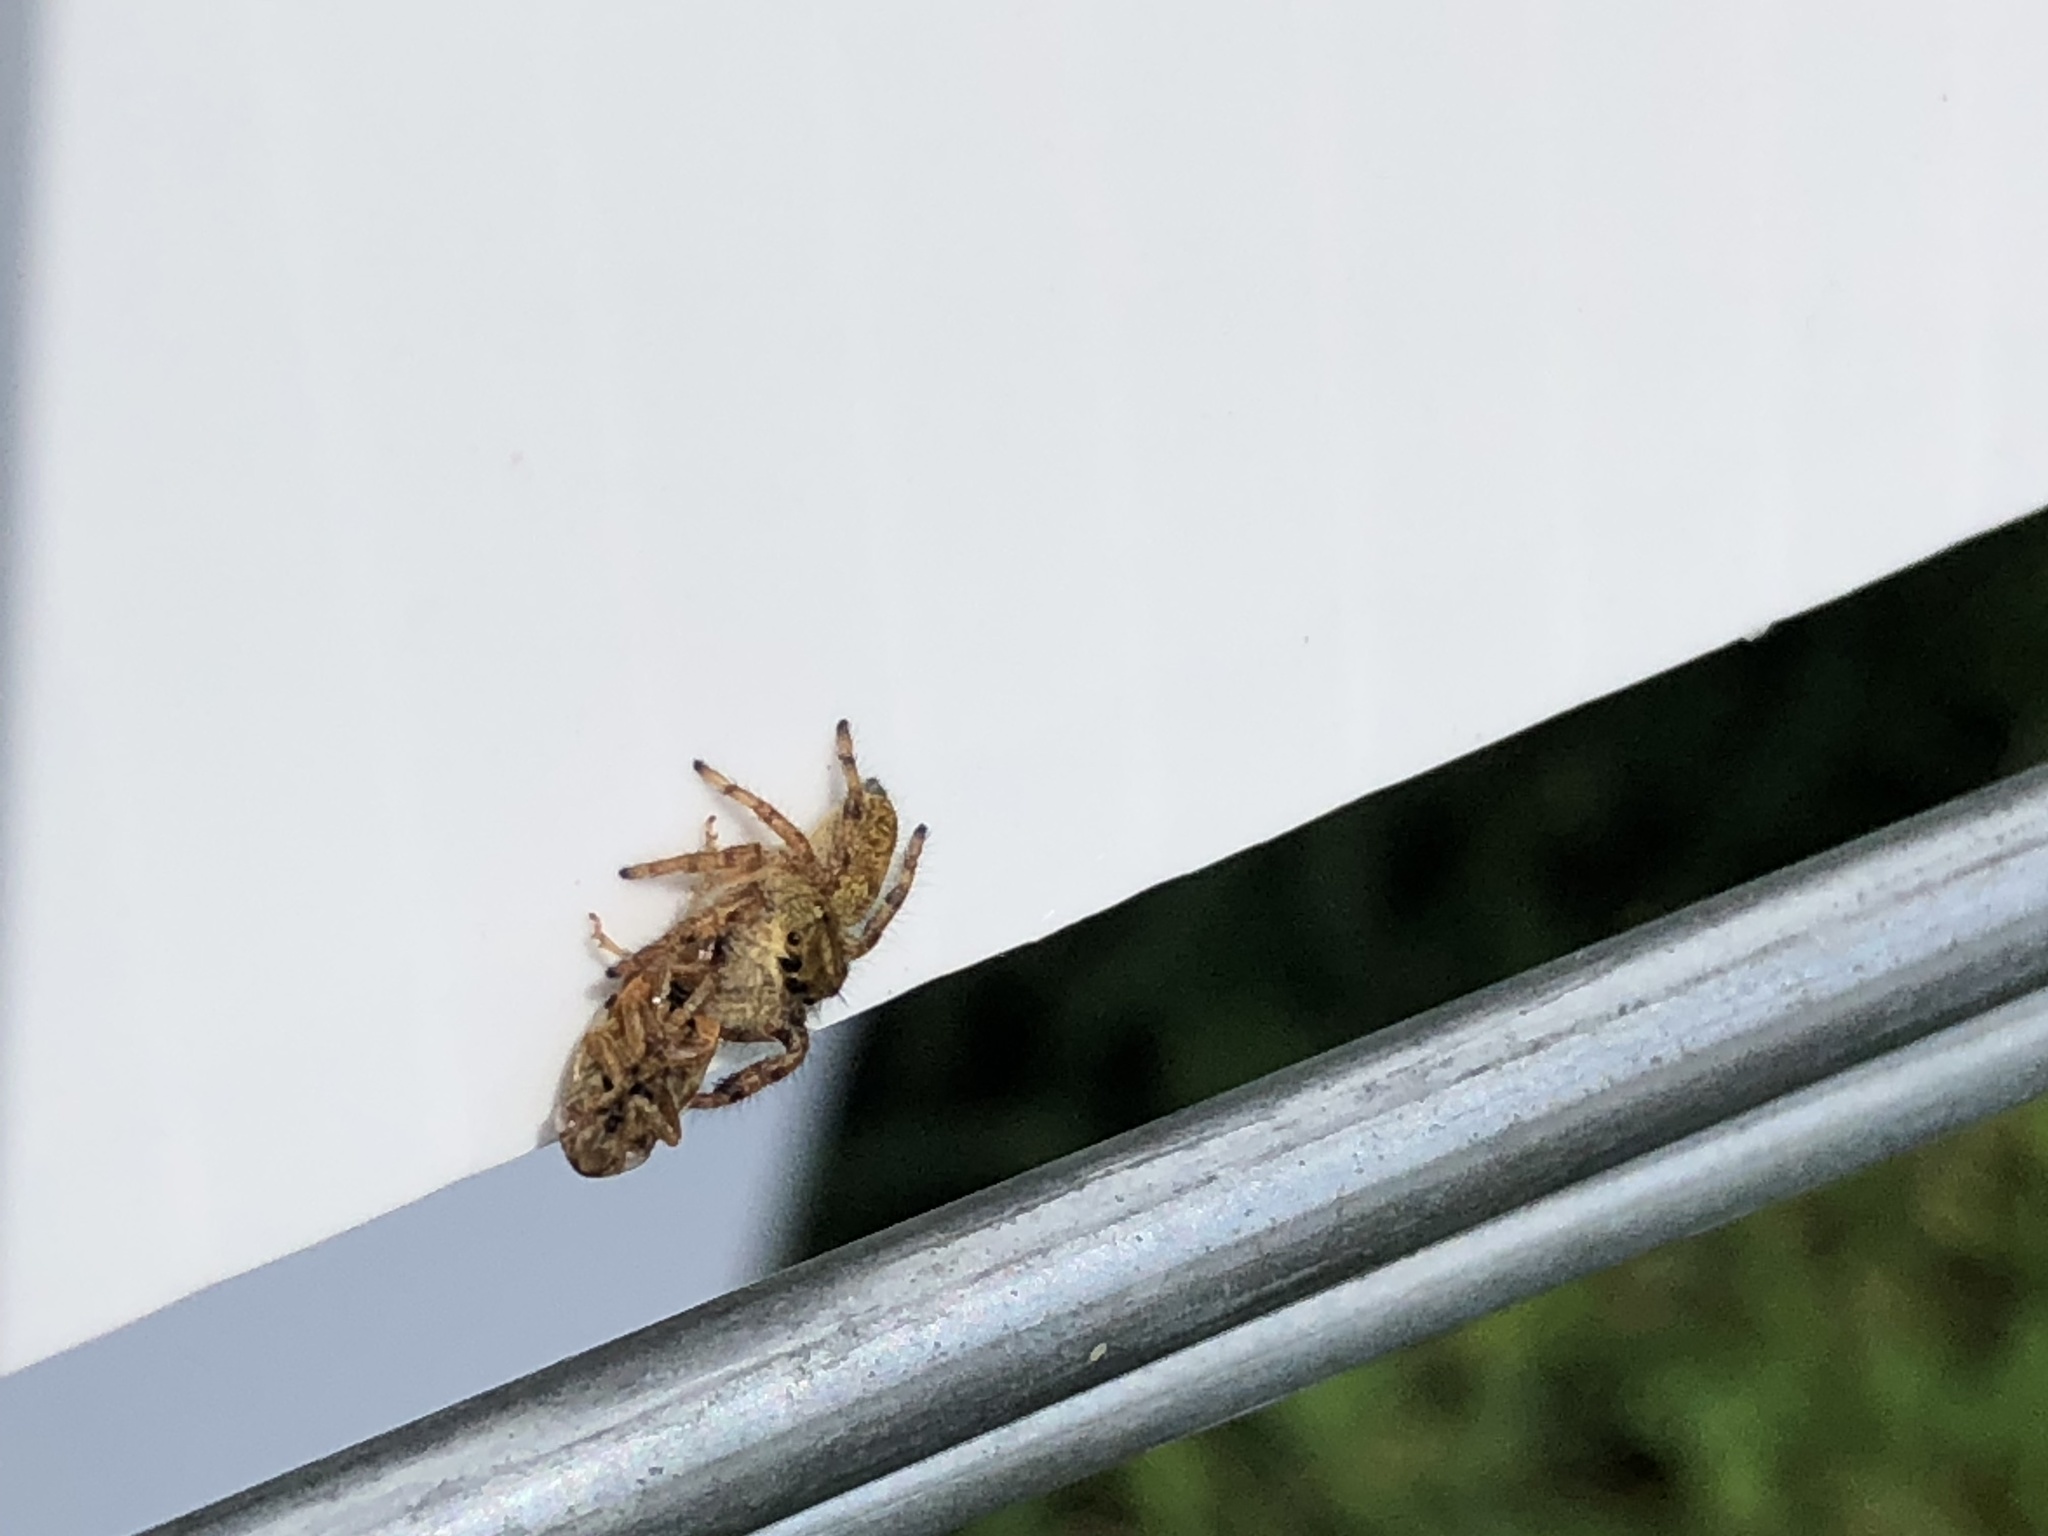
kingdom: Animalia
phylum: Arthropoda
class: Arachnida
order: Araneae
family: Salticidae
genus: Phidippus
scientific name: Phidippus princeps
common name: Grayish jumping spider
